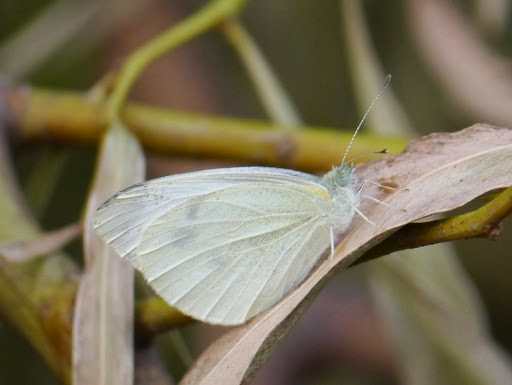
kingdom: Animalia
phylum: Arthropoda
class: Insecta
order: Lepidoptera
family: Pieridae
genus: Pieris
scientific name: Pieris rapae
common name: Small white
